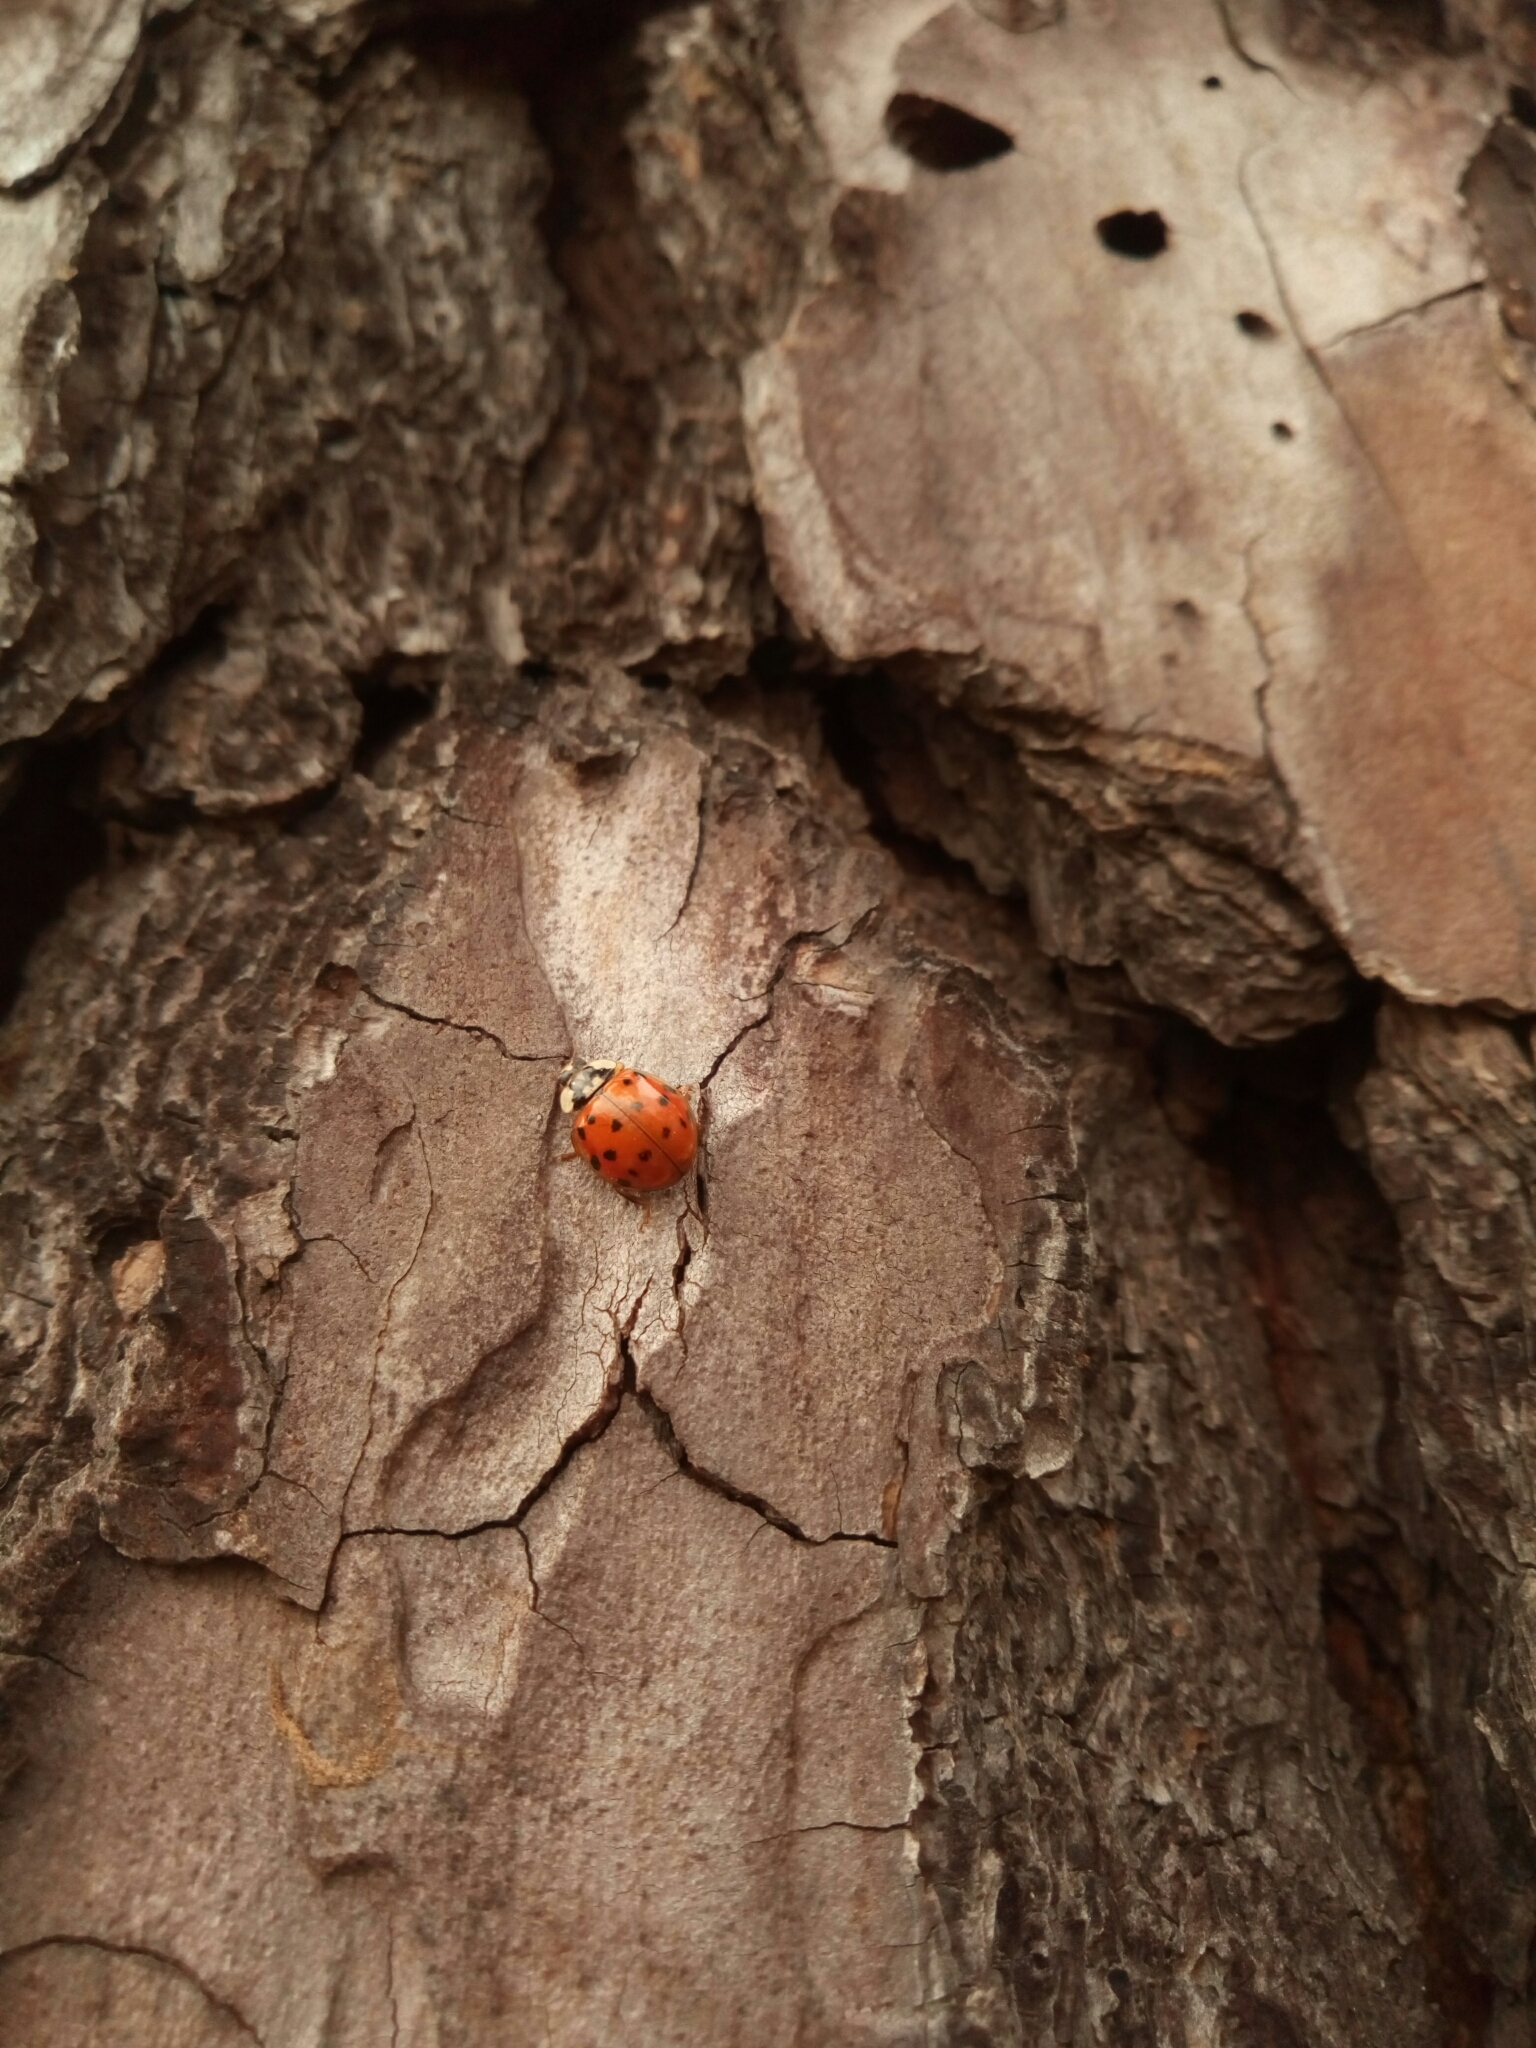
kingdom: Animalia
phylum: Arthropoda
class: Insecta
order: Coleoptera
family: Coccinellidae
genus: Harmonia
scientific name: Harmonia axyridis
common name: Harlequin ladybird
